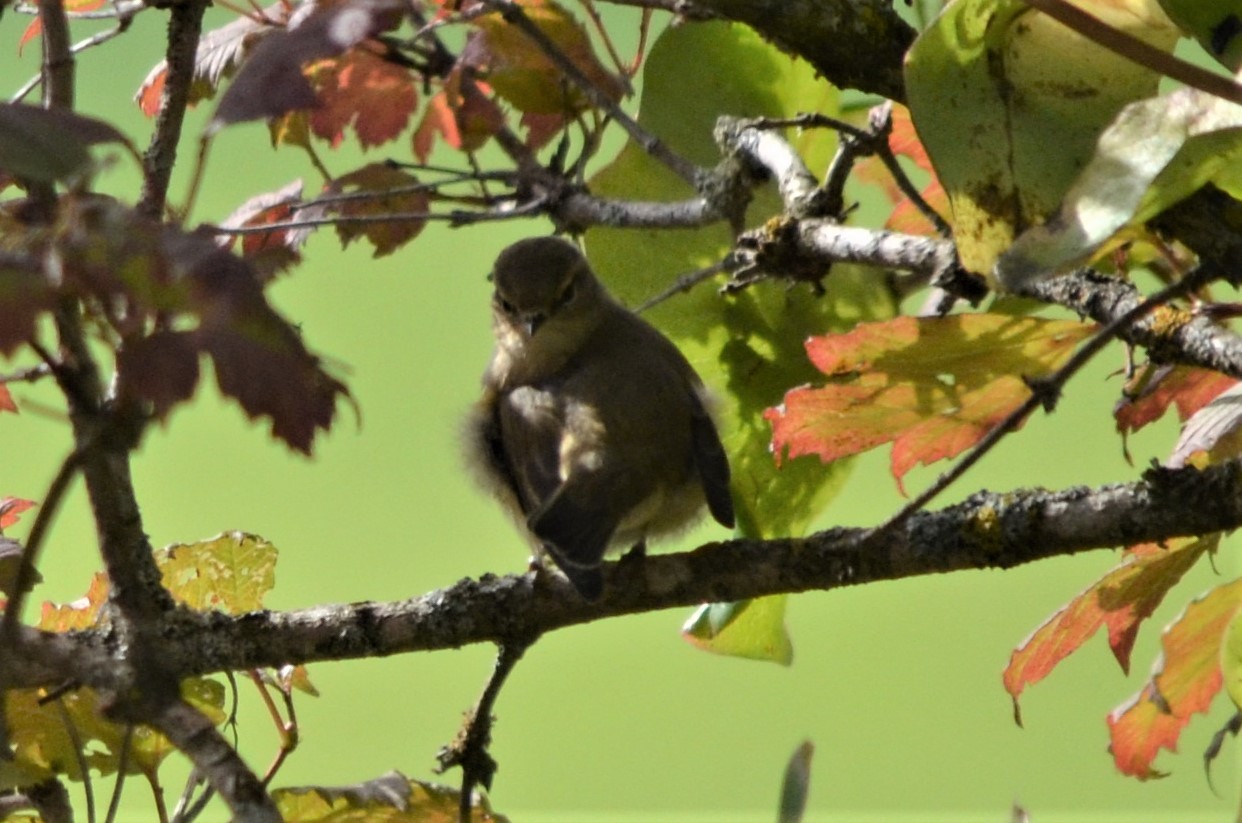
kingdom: Animalia
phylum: Chordata
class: Aves
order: Passeriformes
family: Phylloscopidae
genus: Phylloscopus
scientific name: Phylloscopus collybita
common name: Common chiffchaff
